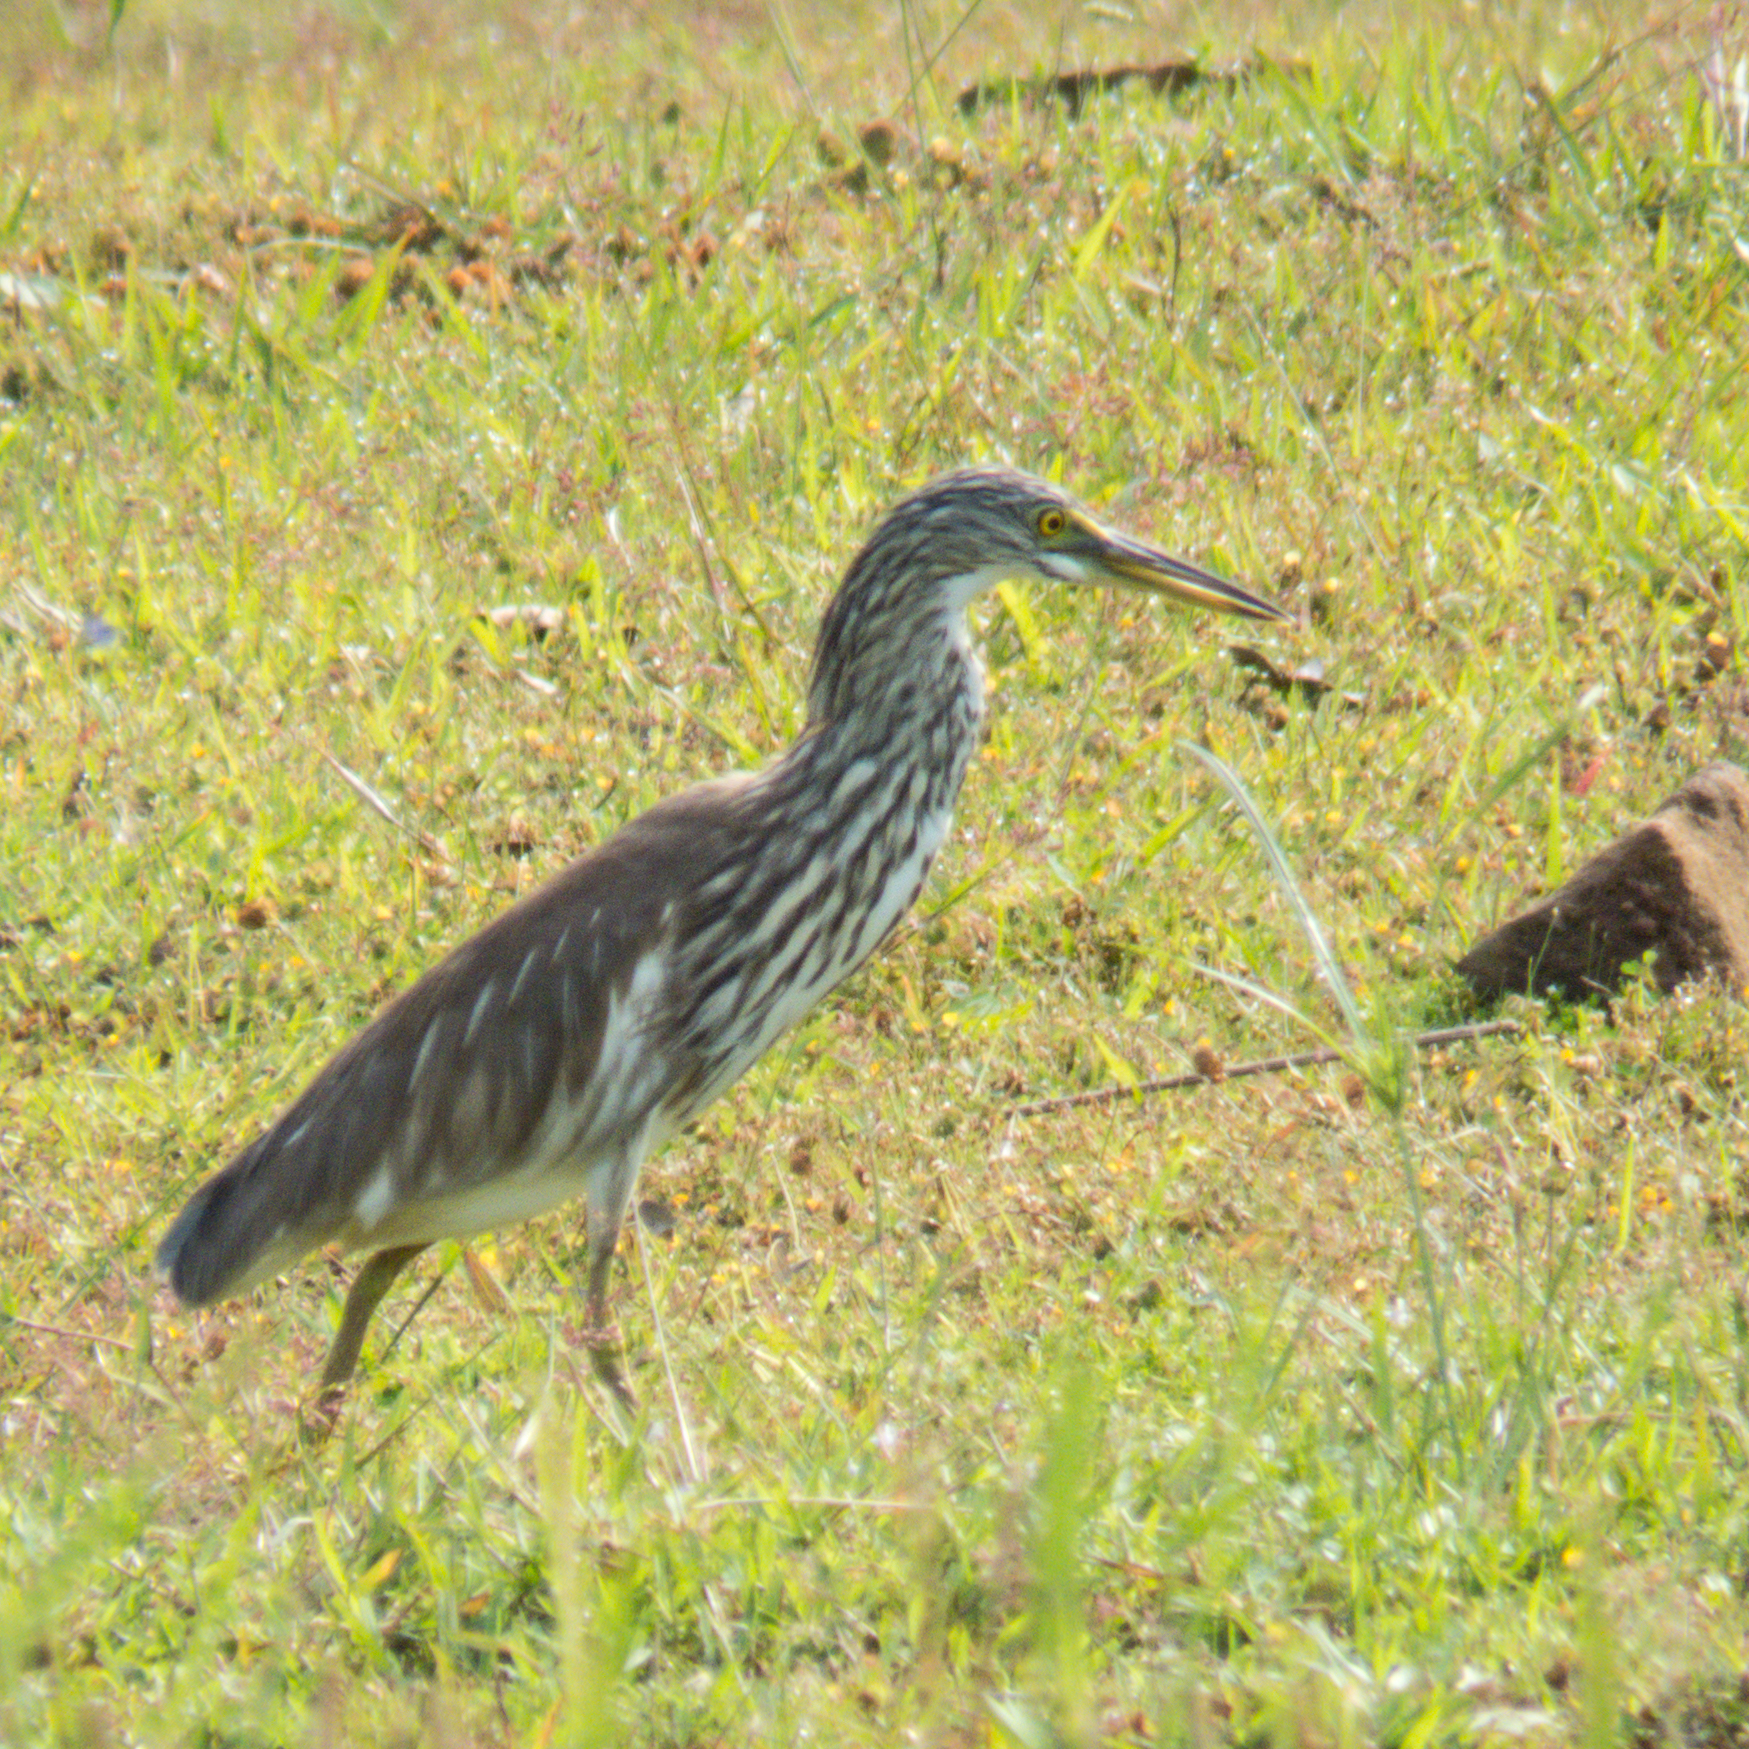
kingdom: Animalia
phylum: Chordata
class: Aves
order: Pelecaniformes
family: Ardeidae
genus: Ardeola
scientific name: Ardeola
